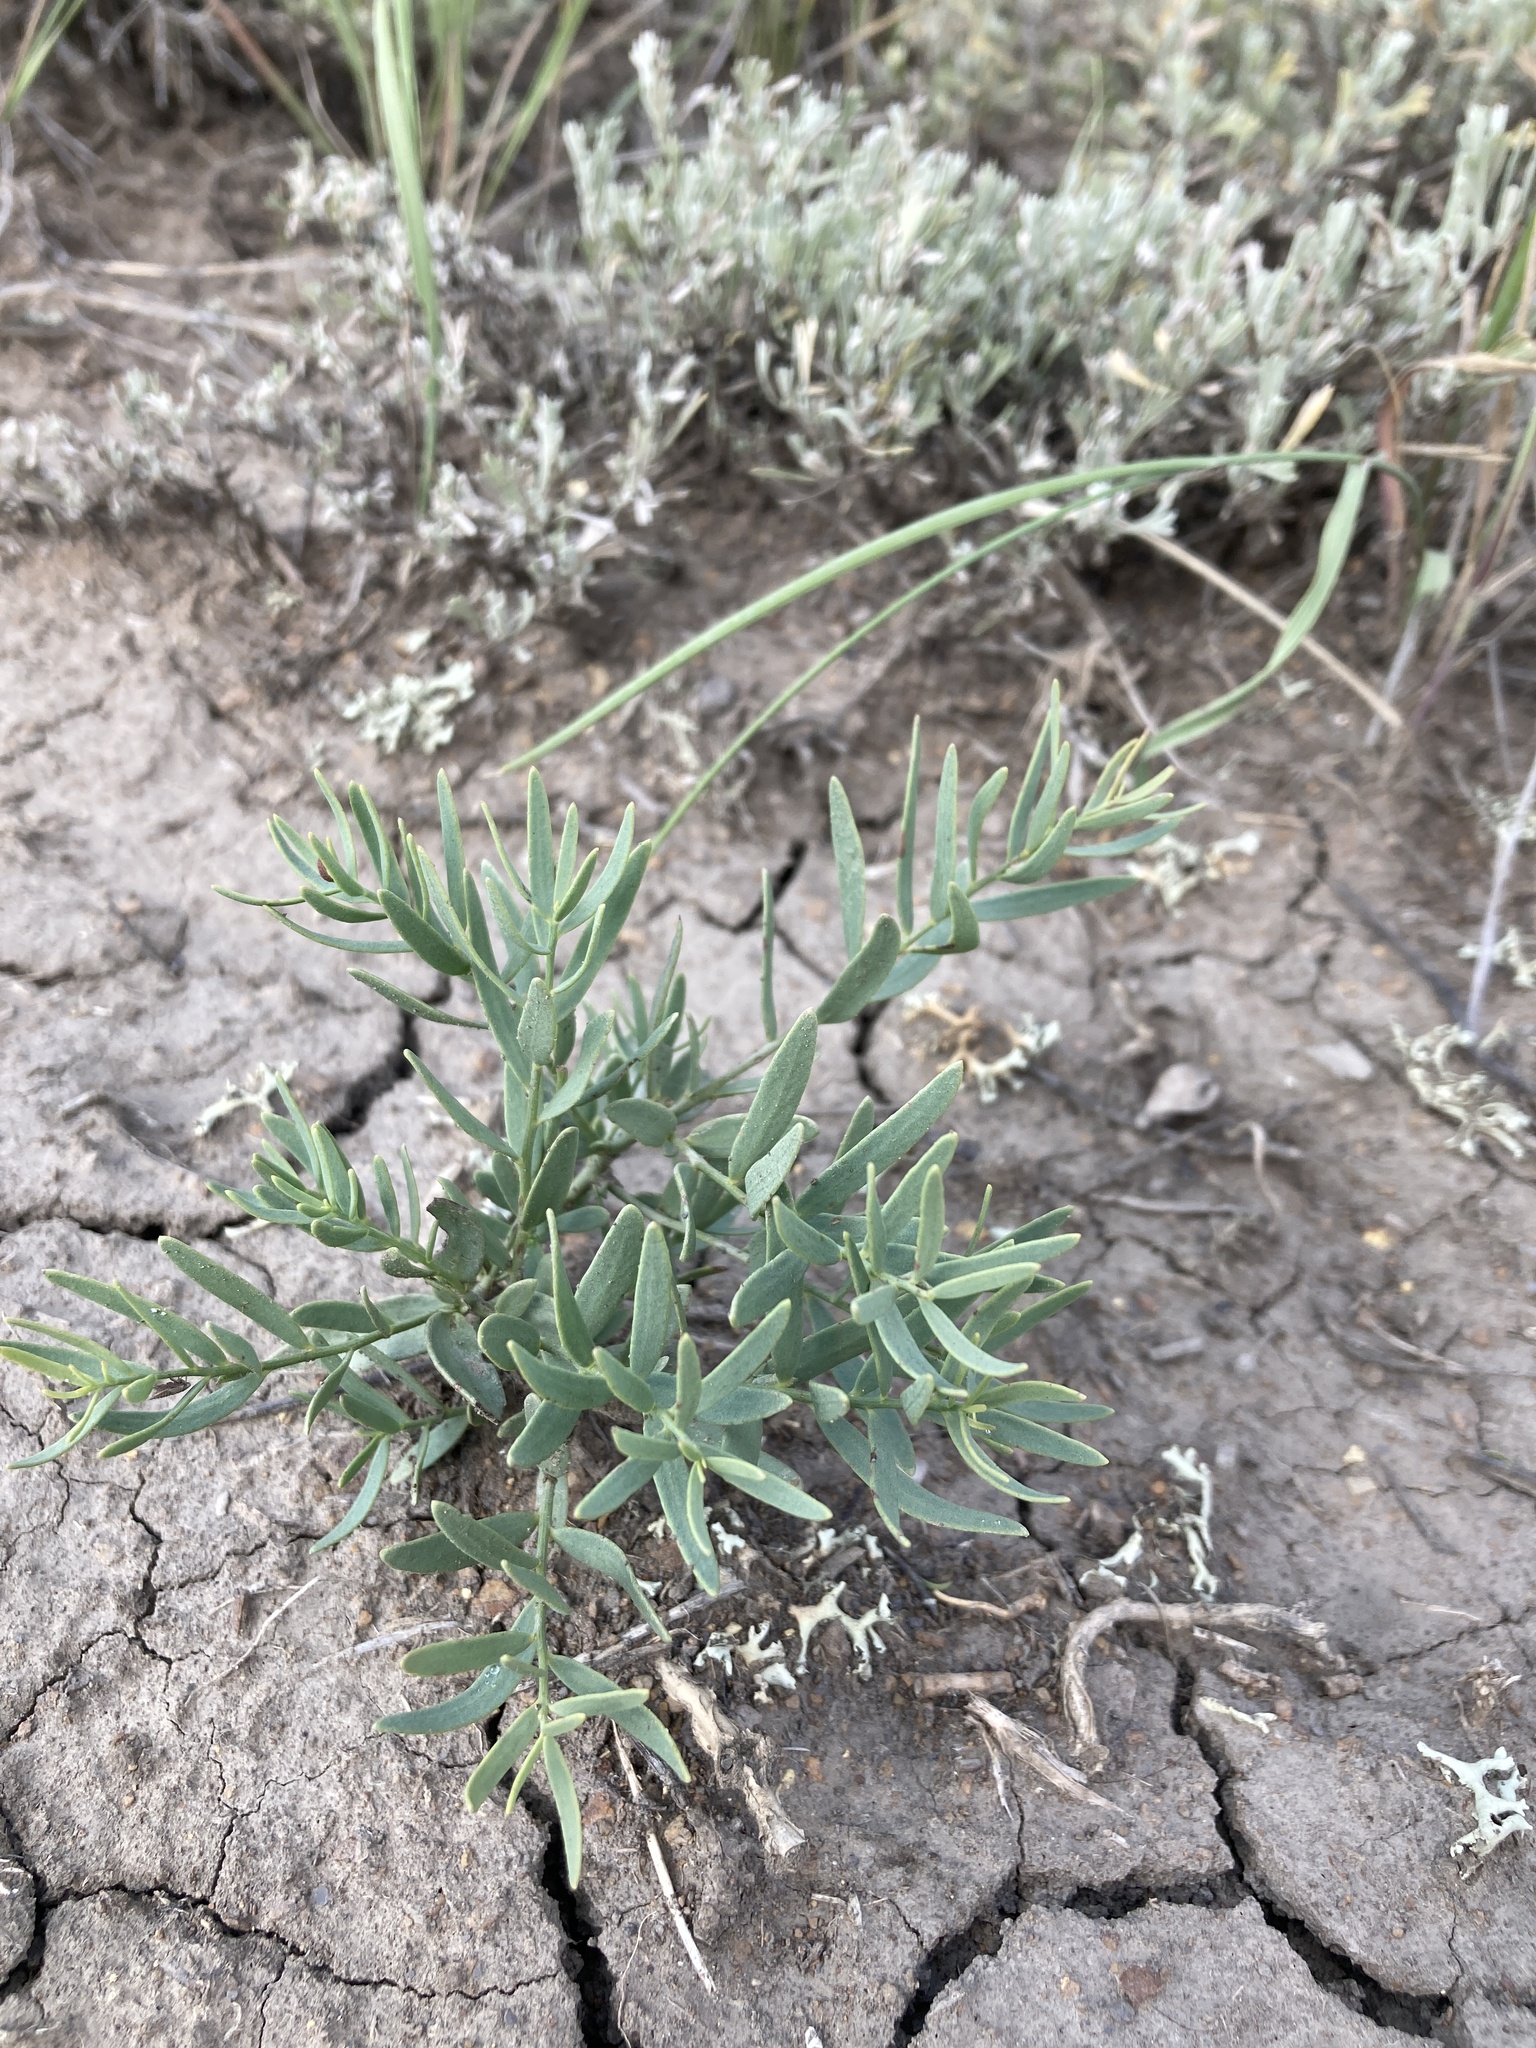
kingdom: Plantae
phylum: Tracheophyta
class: Magnoliopsida
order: Santalales
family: Comandraceae
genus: Comandra
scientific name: Comandra umbellata
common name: Bastard toadflax
